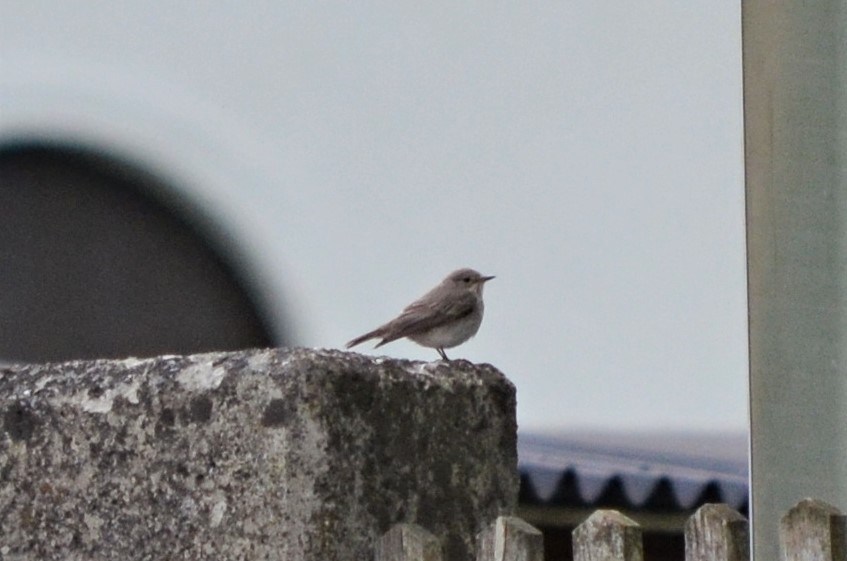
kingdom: Animalia
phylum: Chordata
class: Aves
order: Passeriformes
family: Muscicapidae
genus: Muscicapa
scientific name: Muscicapa striata
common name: Spotted flycatcher
